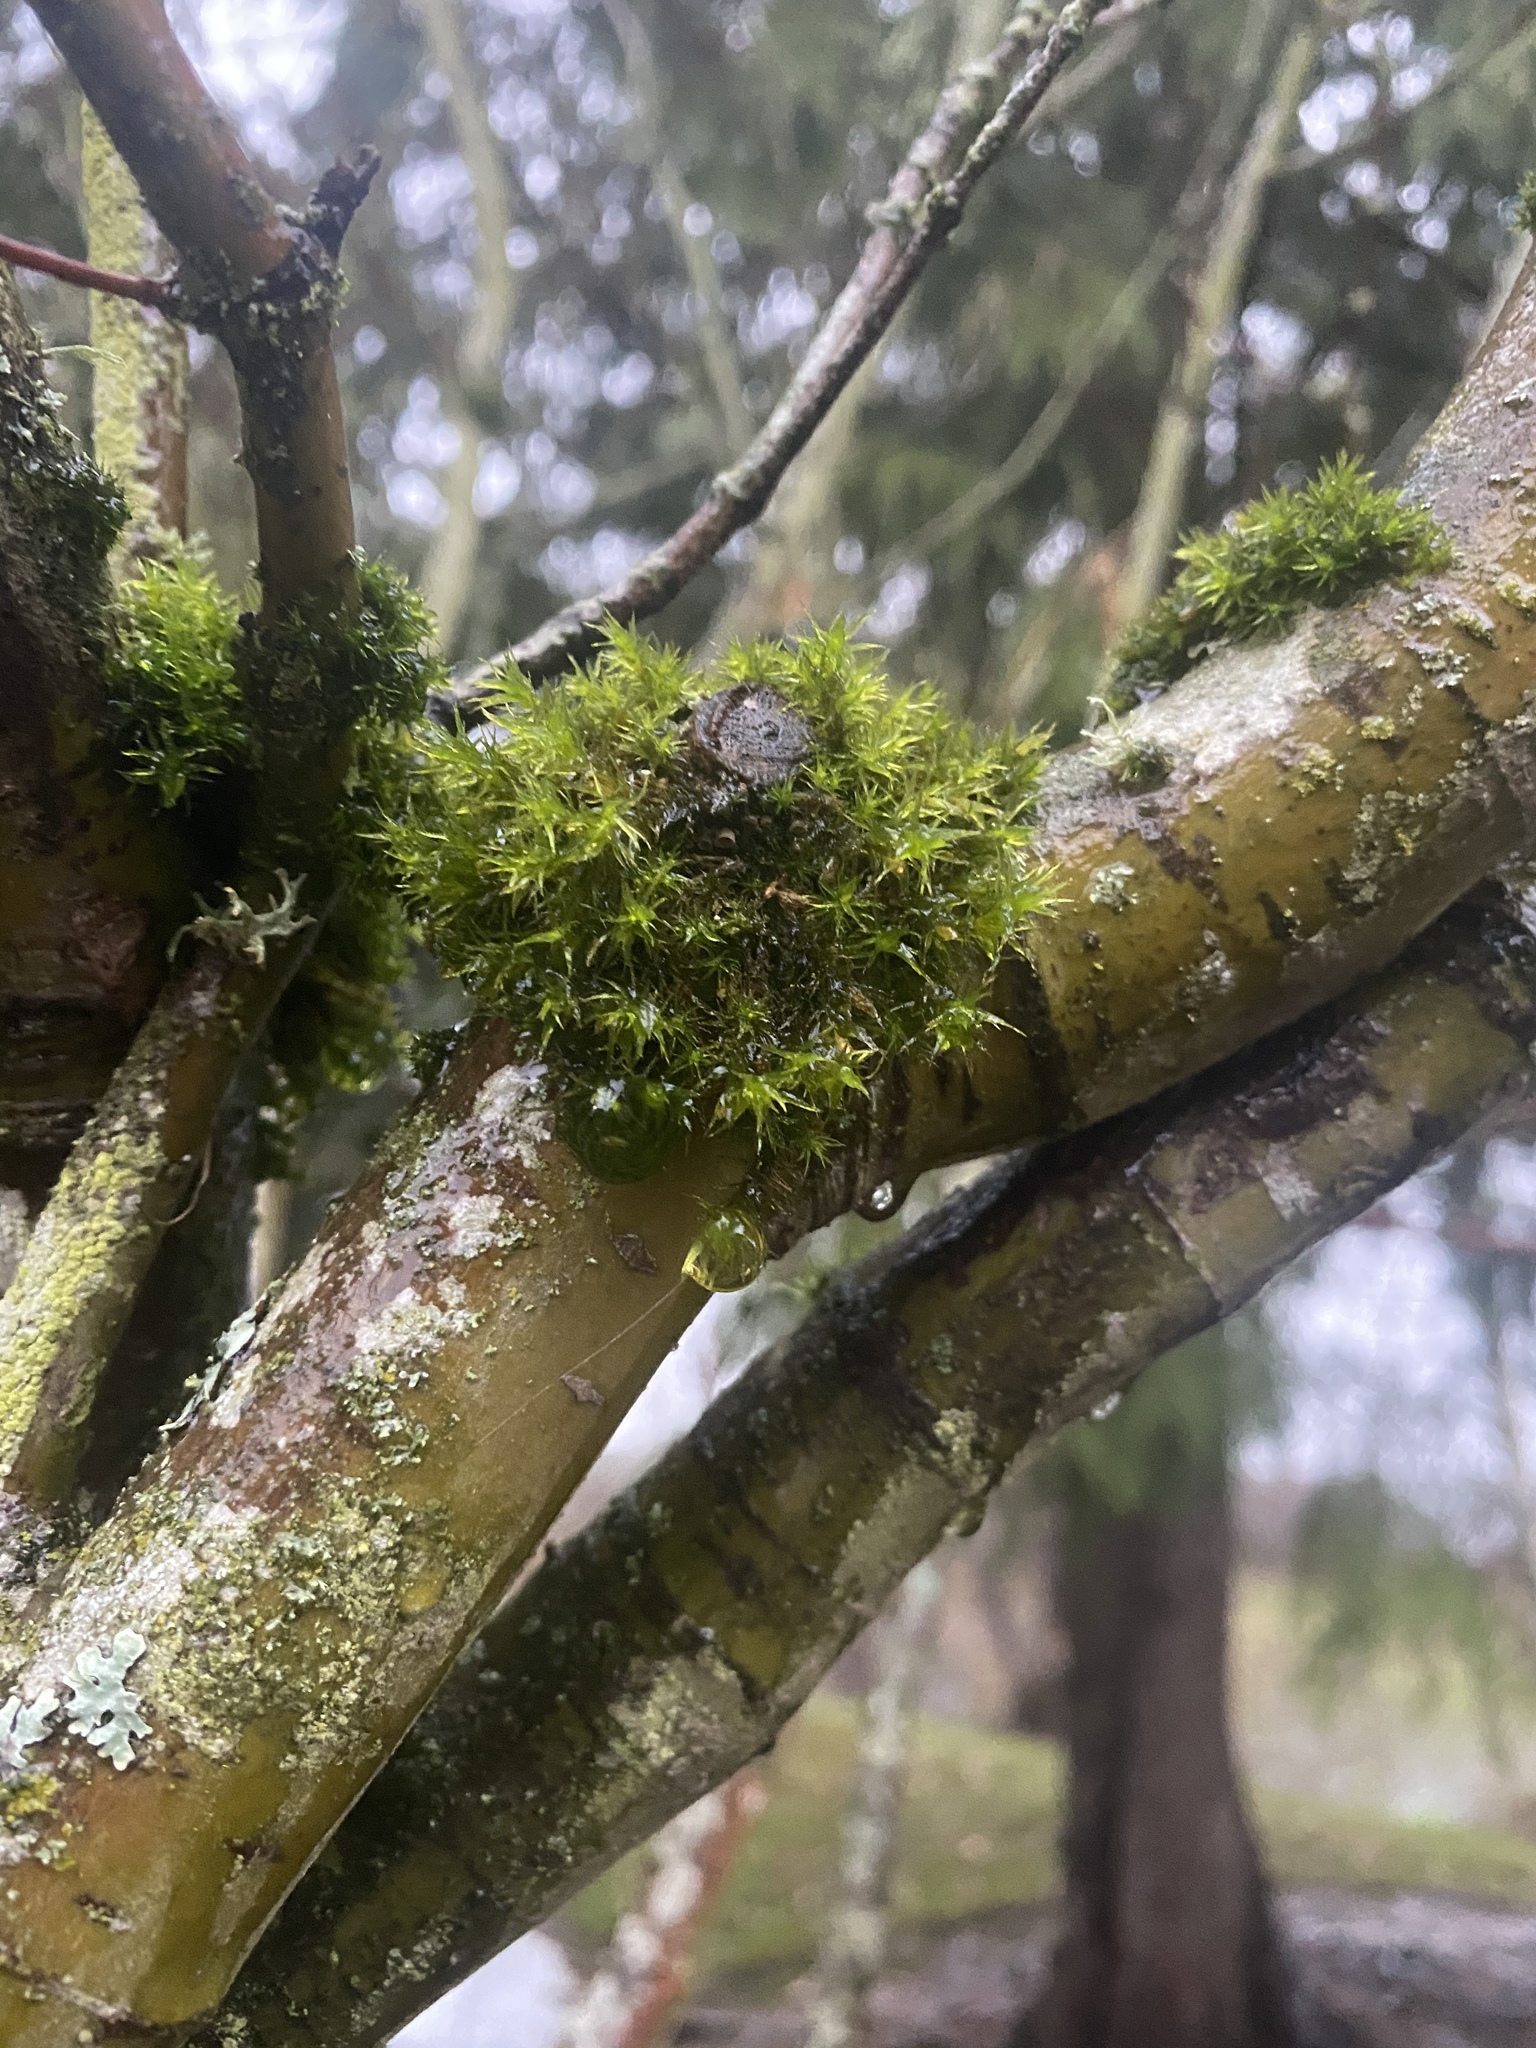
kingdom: Plantae
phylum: Bryophyta
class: Bryopsida
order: Orthotrichales
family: Orthotrichaceae
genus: Pulvigera
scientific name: Pulvigera lyellii
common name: Lyell's bristle-moss
